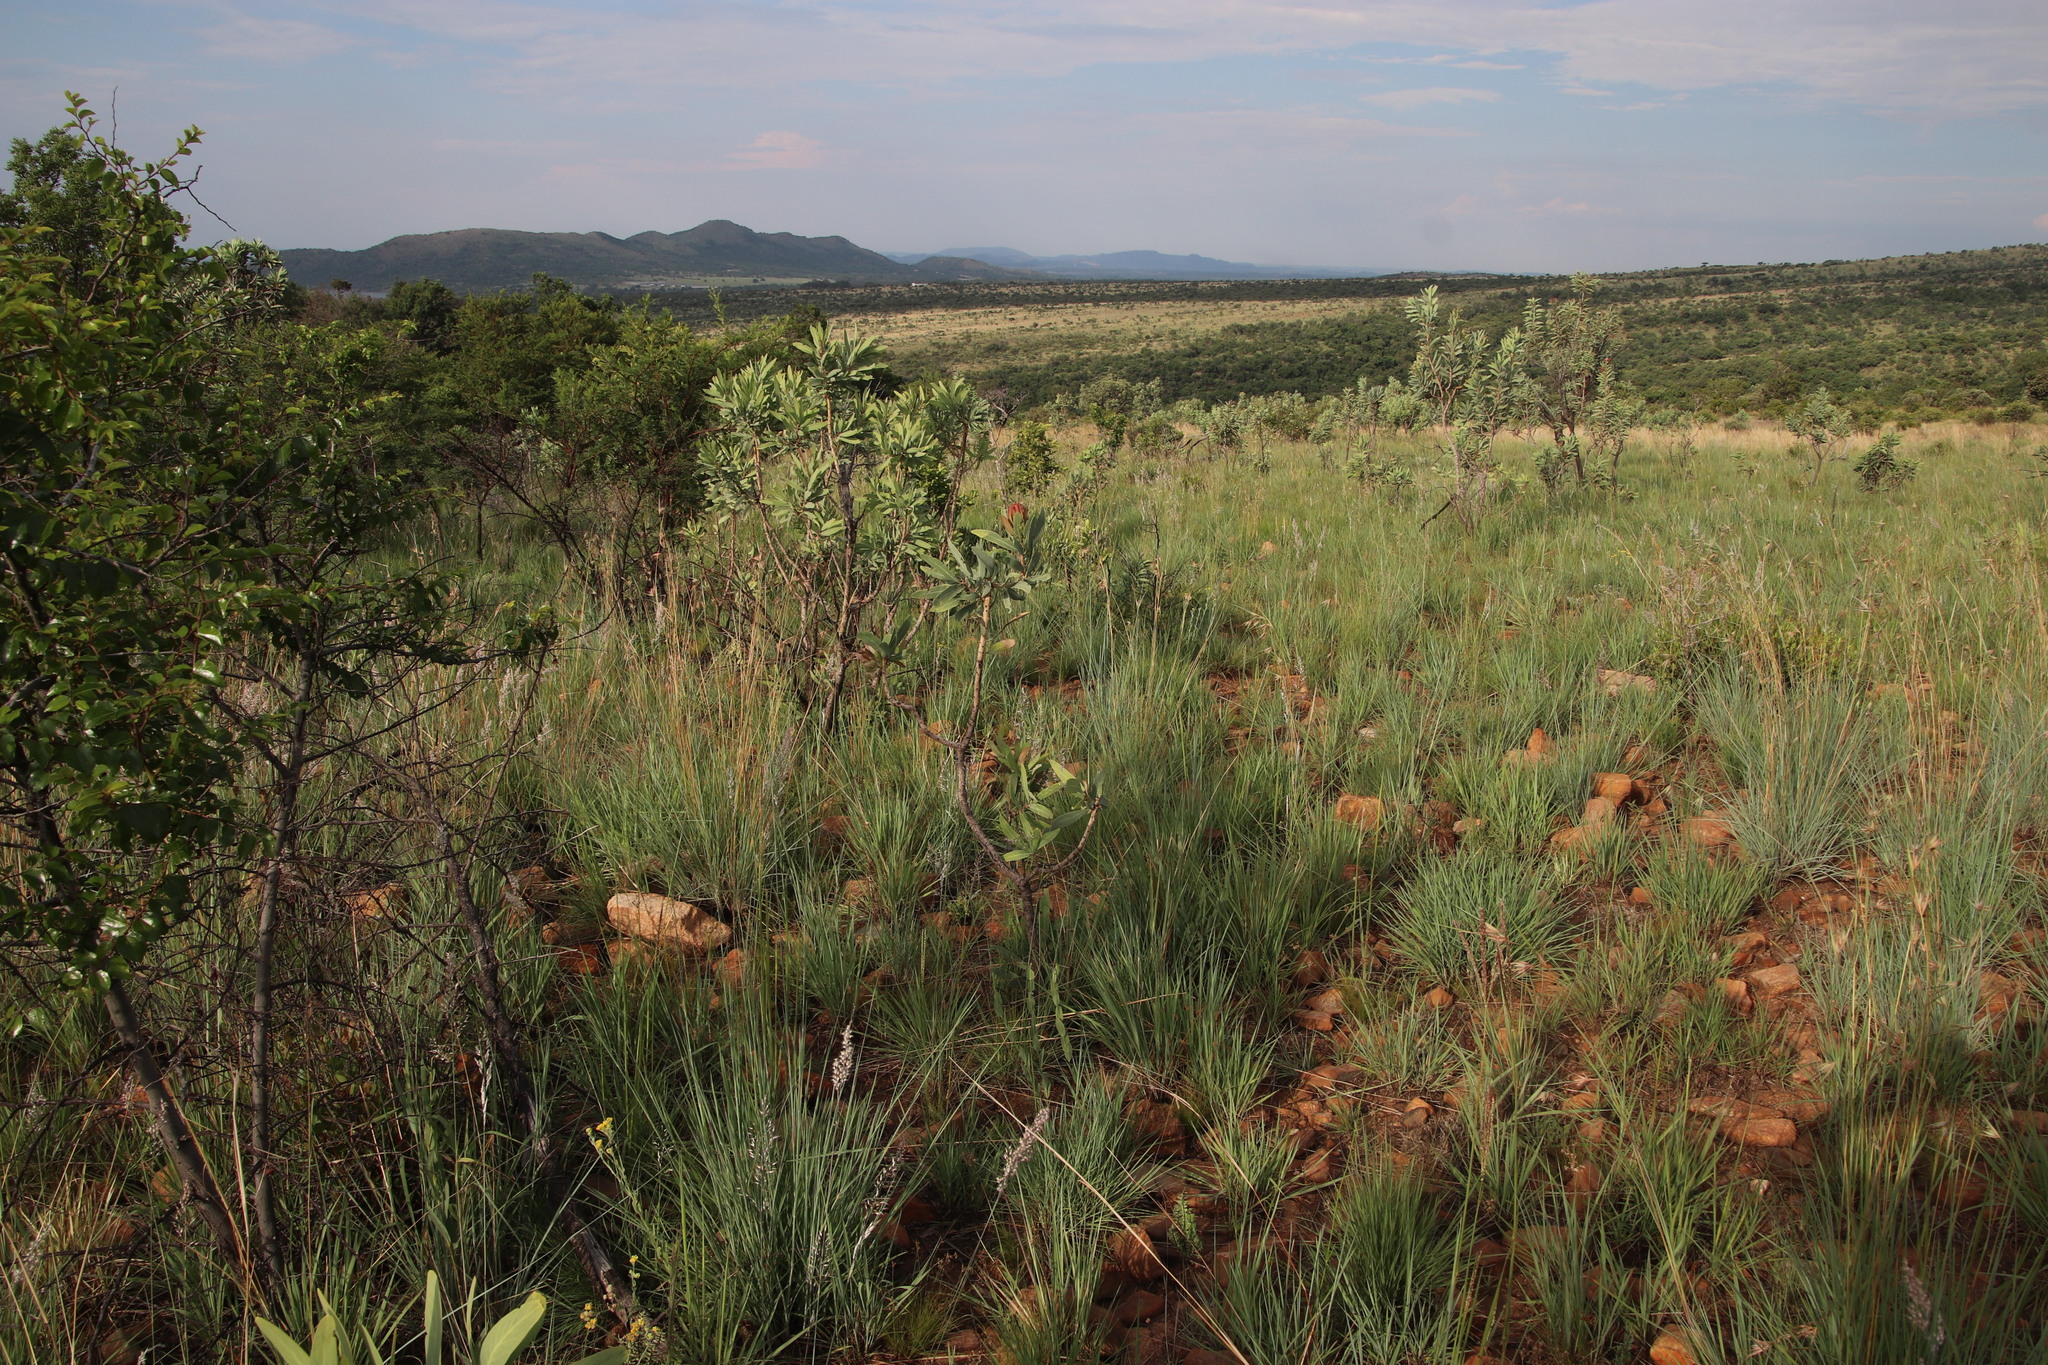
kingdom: Plantae
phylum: Tracheophyta
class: Magnoliopsida
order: Proteales
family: Proteaceae
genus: Protea
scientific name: Protea caffra
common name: Common sugarbush
